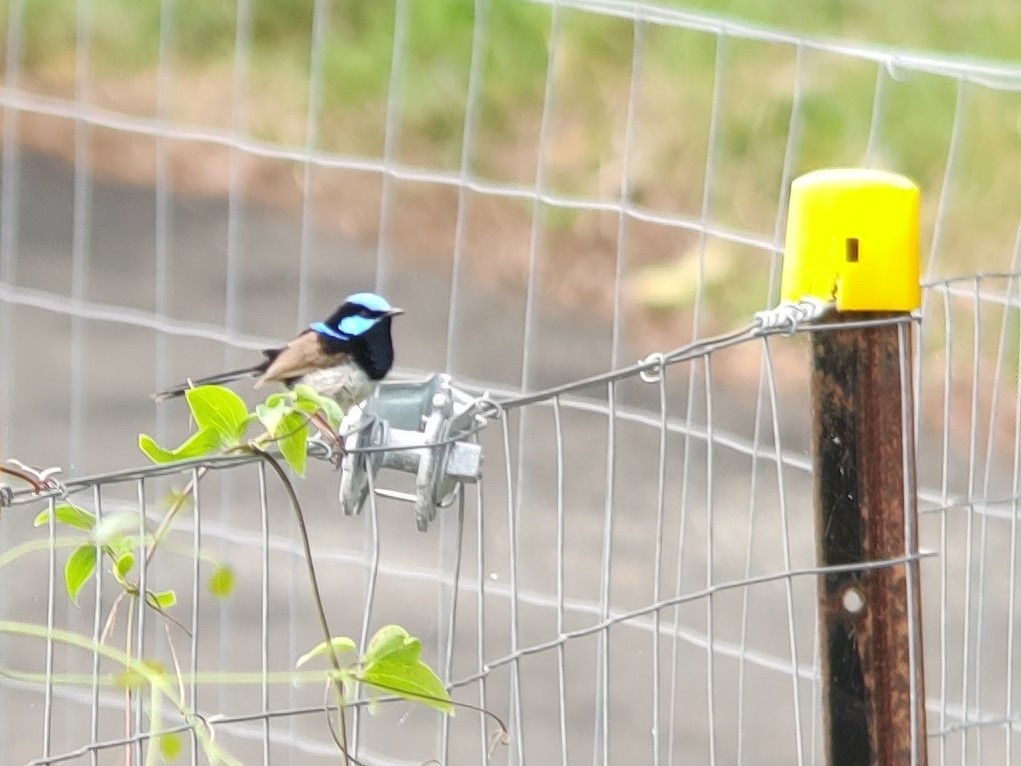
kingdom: Animalia
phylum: Chordata
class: Aves
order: Passeriformes
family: Maluridae
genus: Malurus
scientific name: Malurus cyaneus
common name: Superb fairywren
